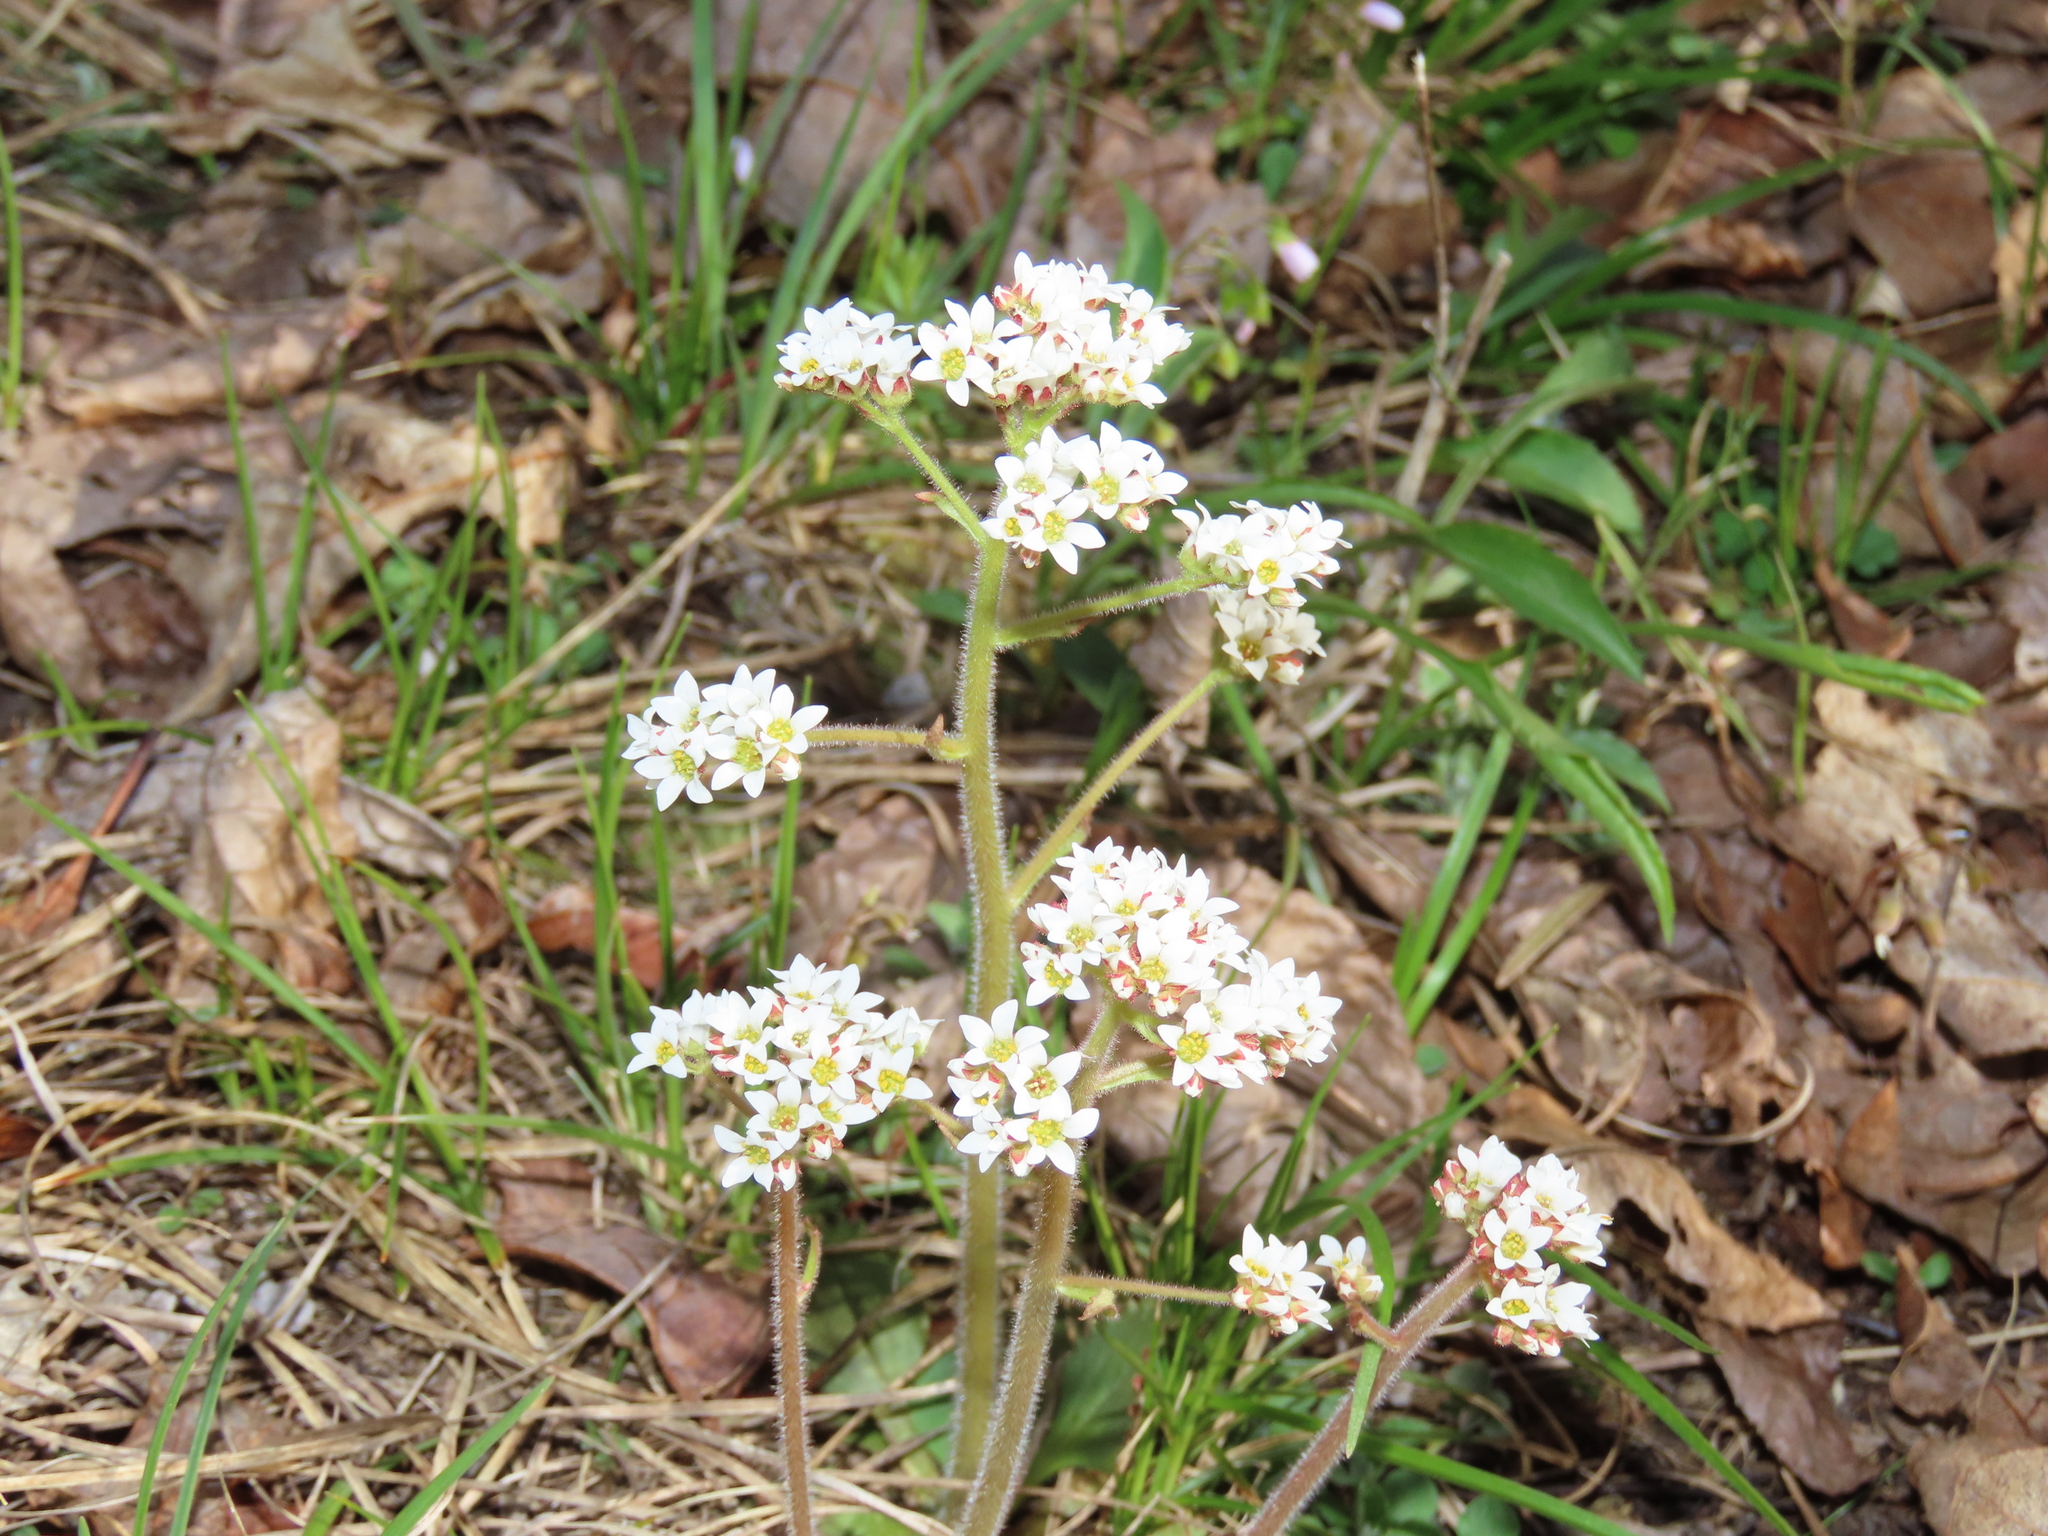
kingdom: Plantae
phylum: Tracheophyta
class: Magnoliopsida
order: Saxifragales
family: Saxifragaceae
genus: Micranthes
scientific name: Micranthes virginiensis
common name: Early saxifrage
